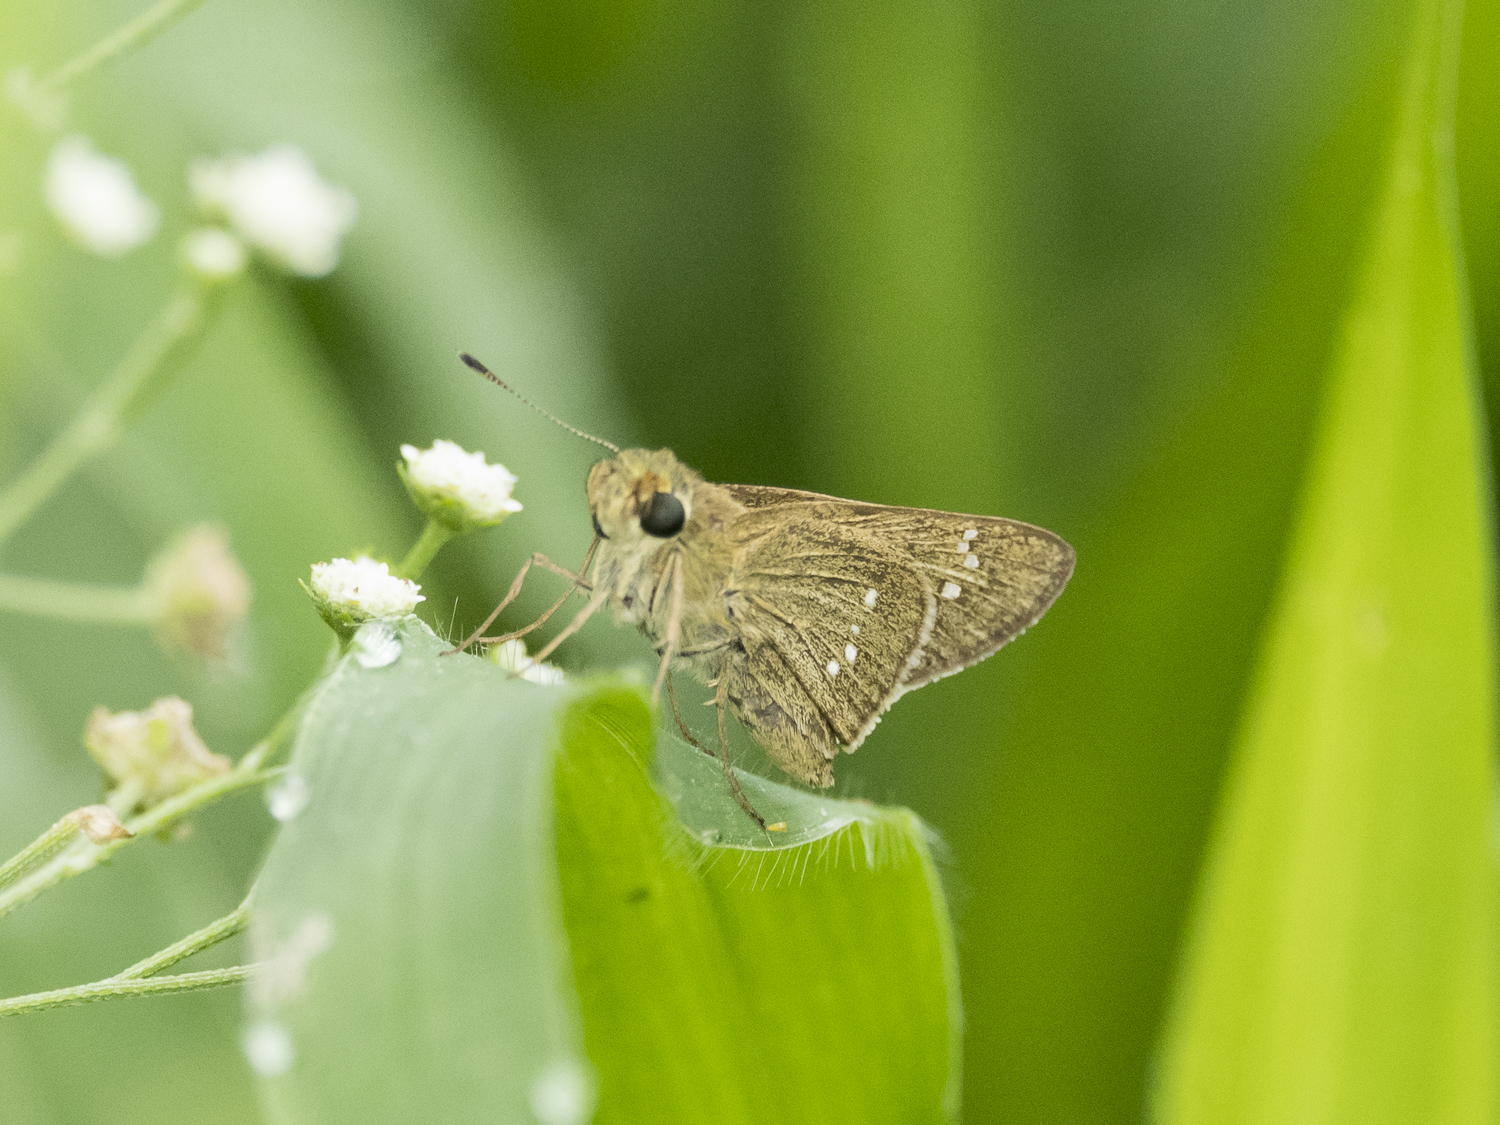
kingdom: Animalia
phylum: Arthropoda
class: Insecta
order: Lepidoptera
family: Hesperiidae
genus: Borbo
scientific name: Borbo cinnara
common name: Formosan swift
